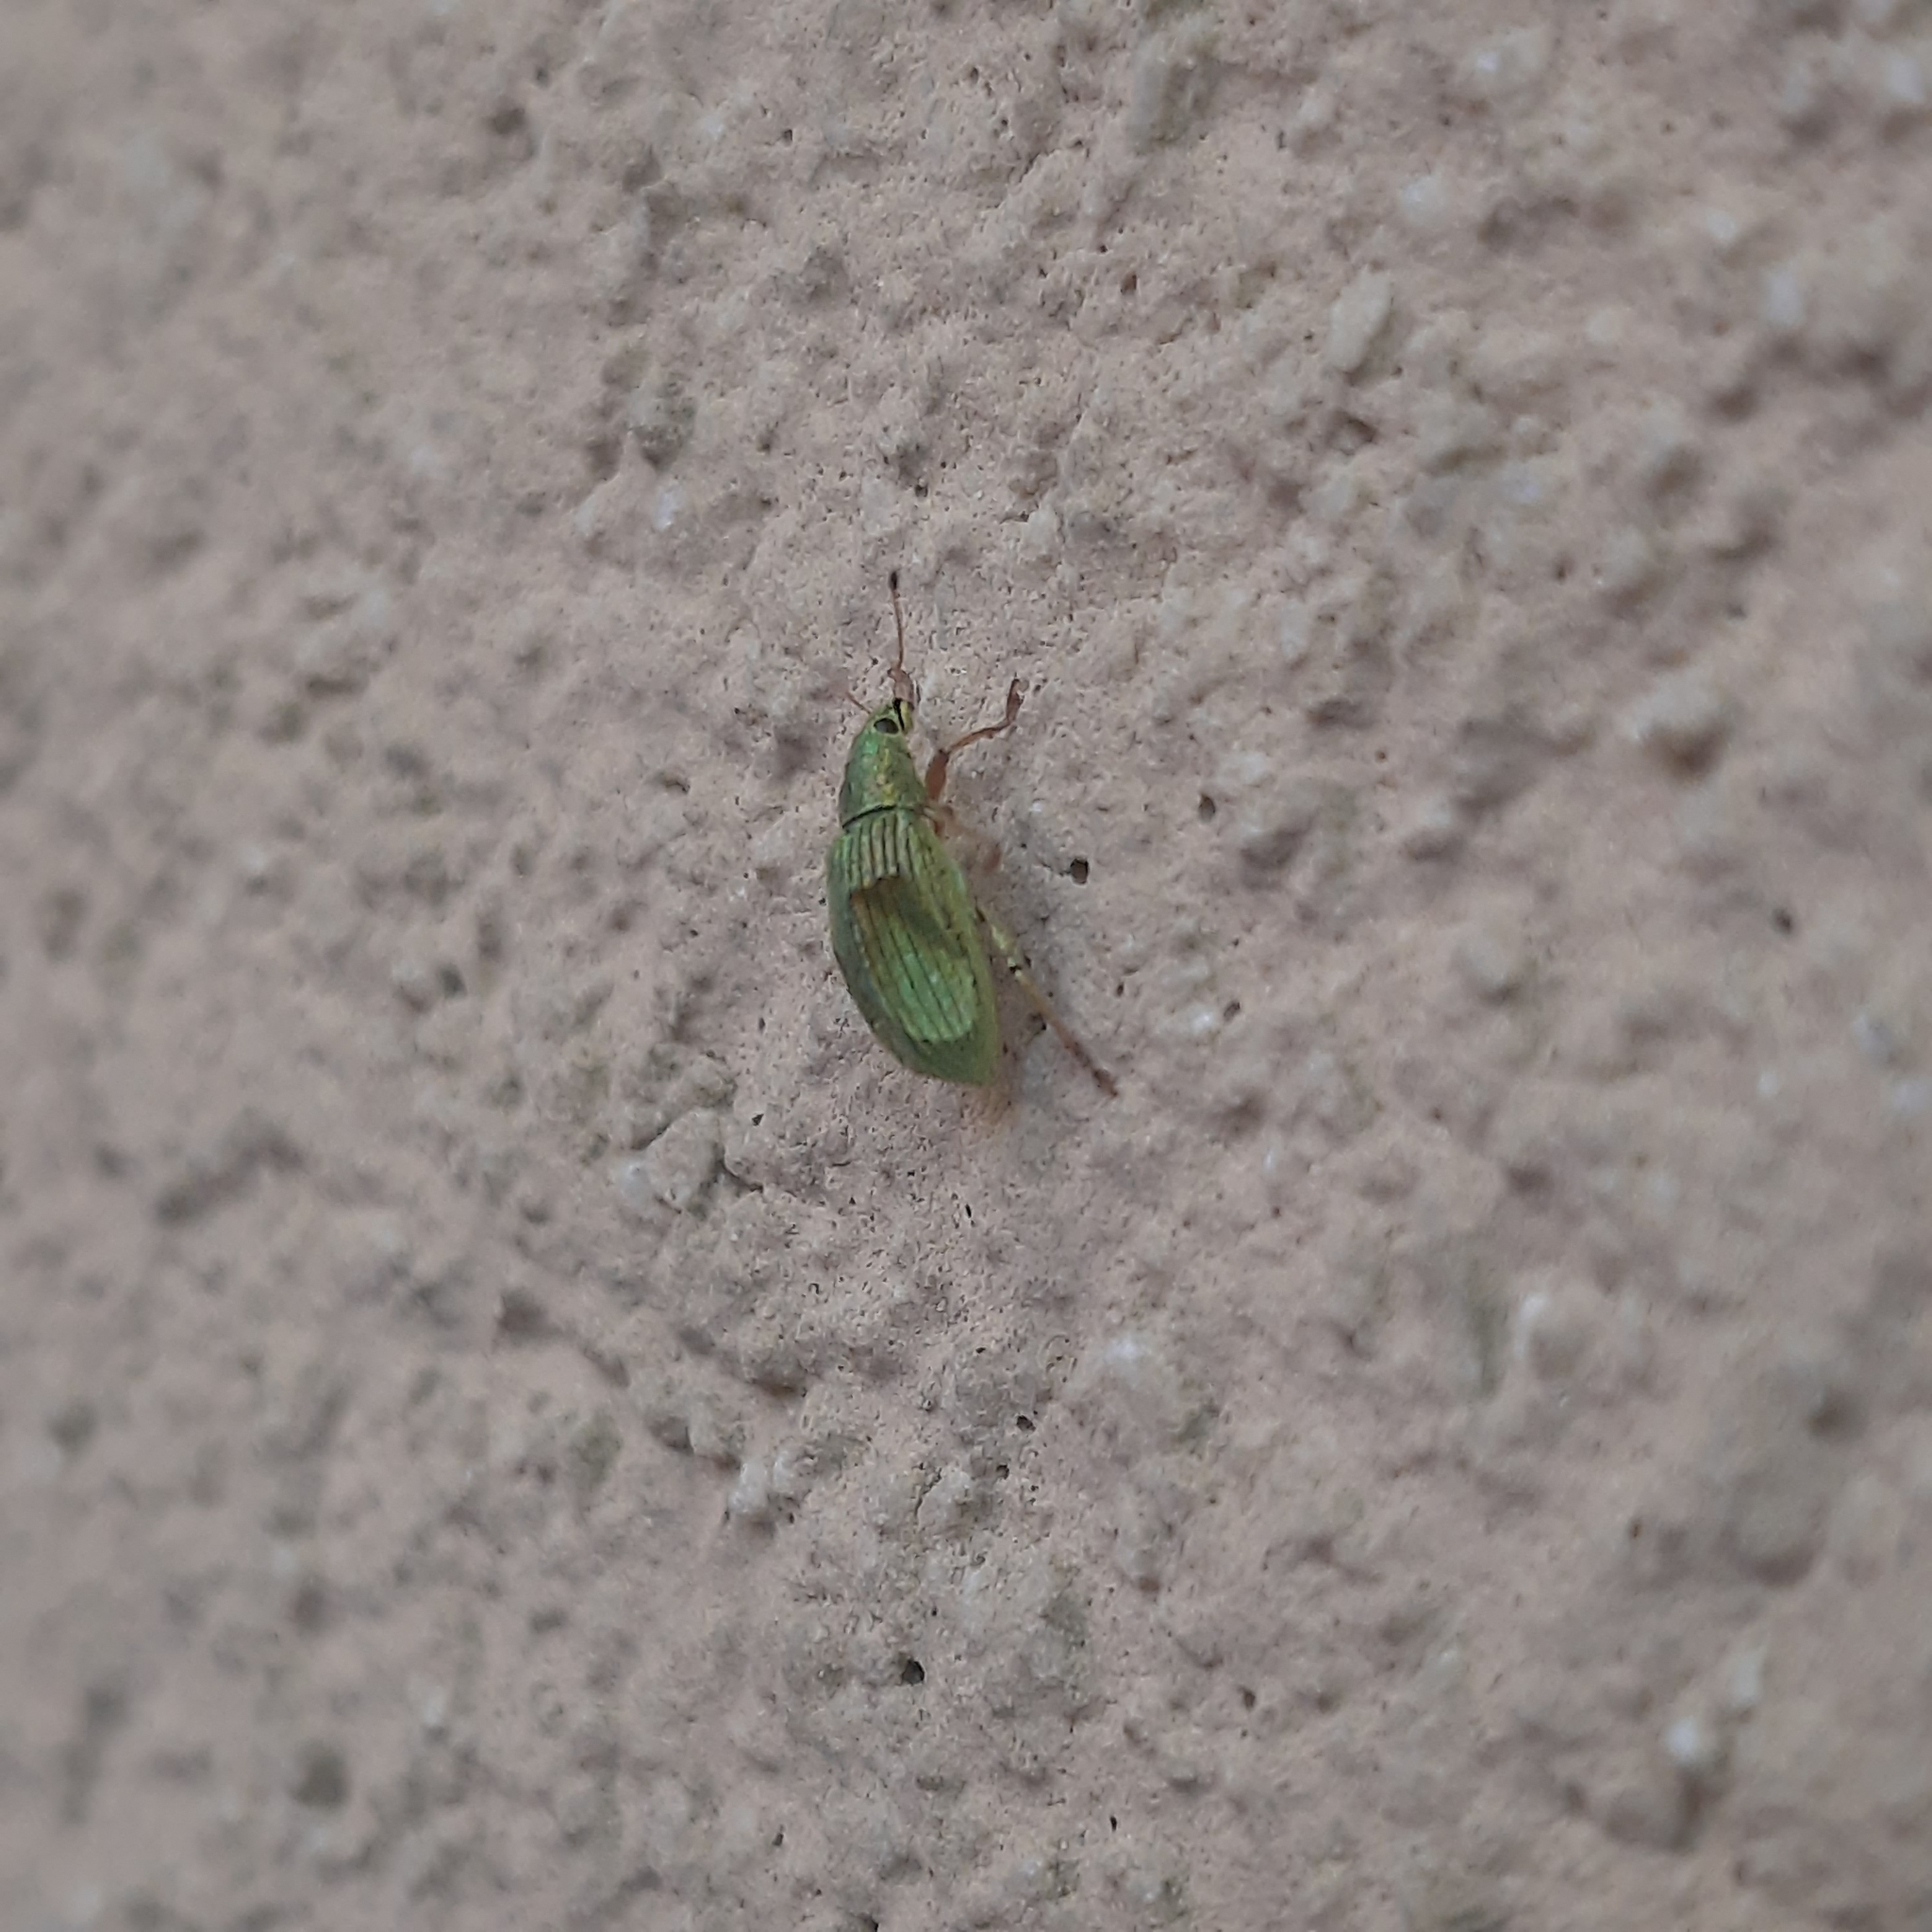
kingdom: Animalia
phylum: Arthropoda
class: Insecta
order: Coleoptera
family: Curculionidae
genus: Polydrusus
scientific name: Polydrusus formosus
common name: Weevil
